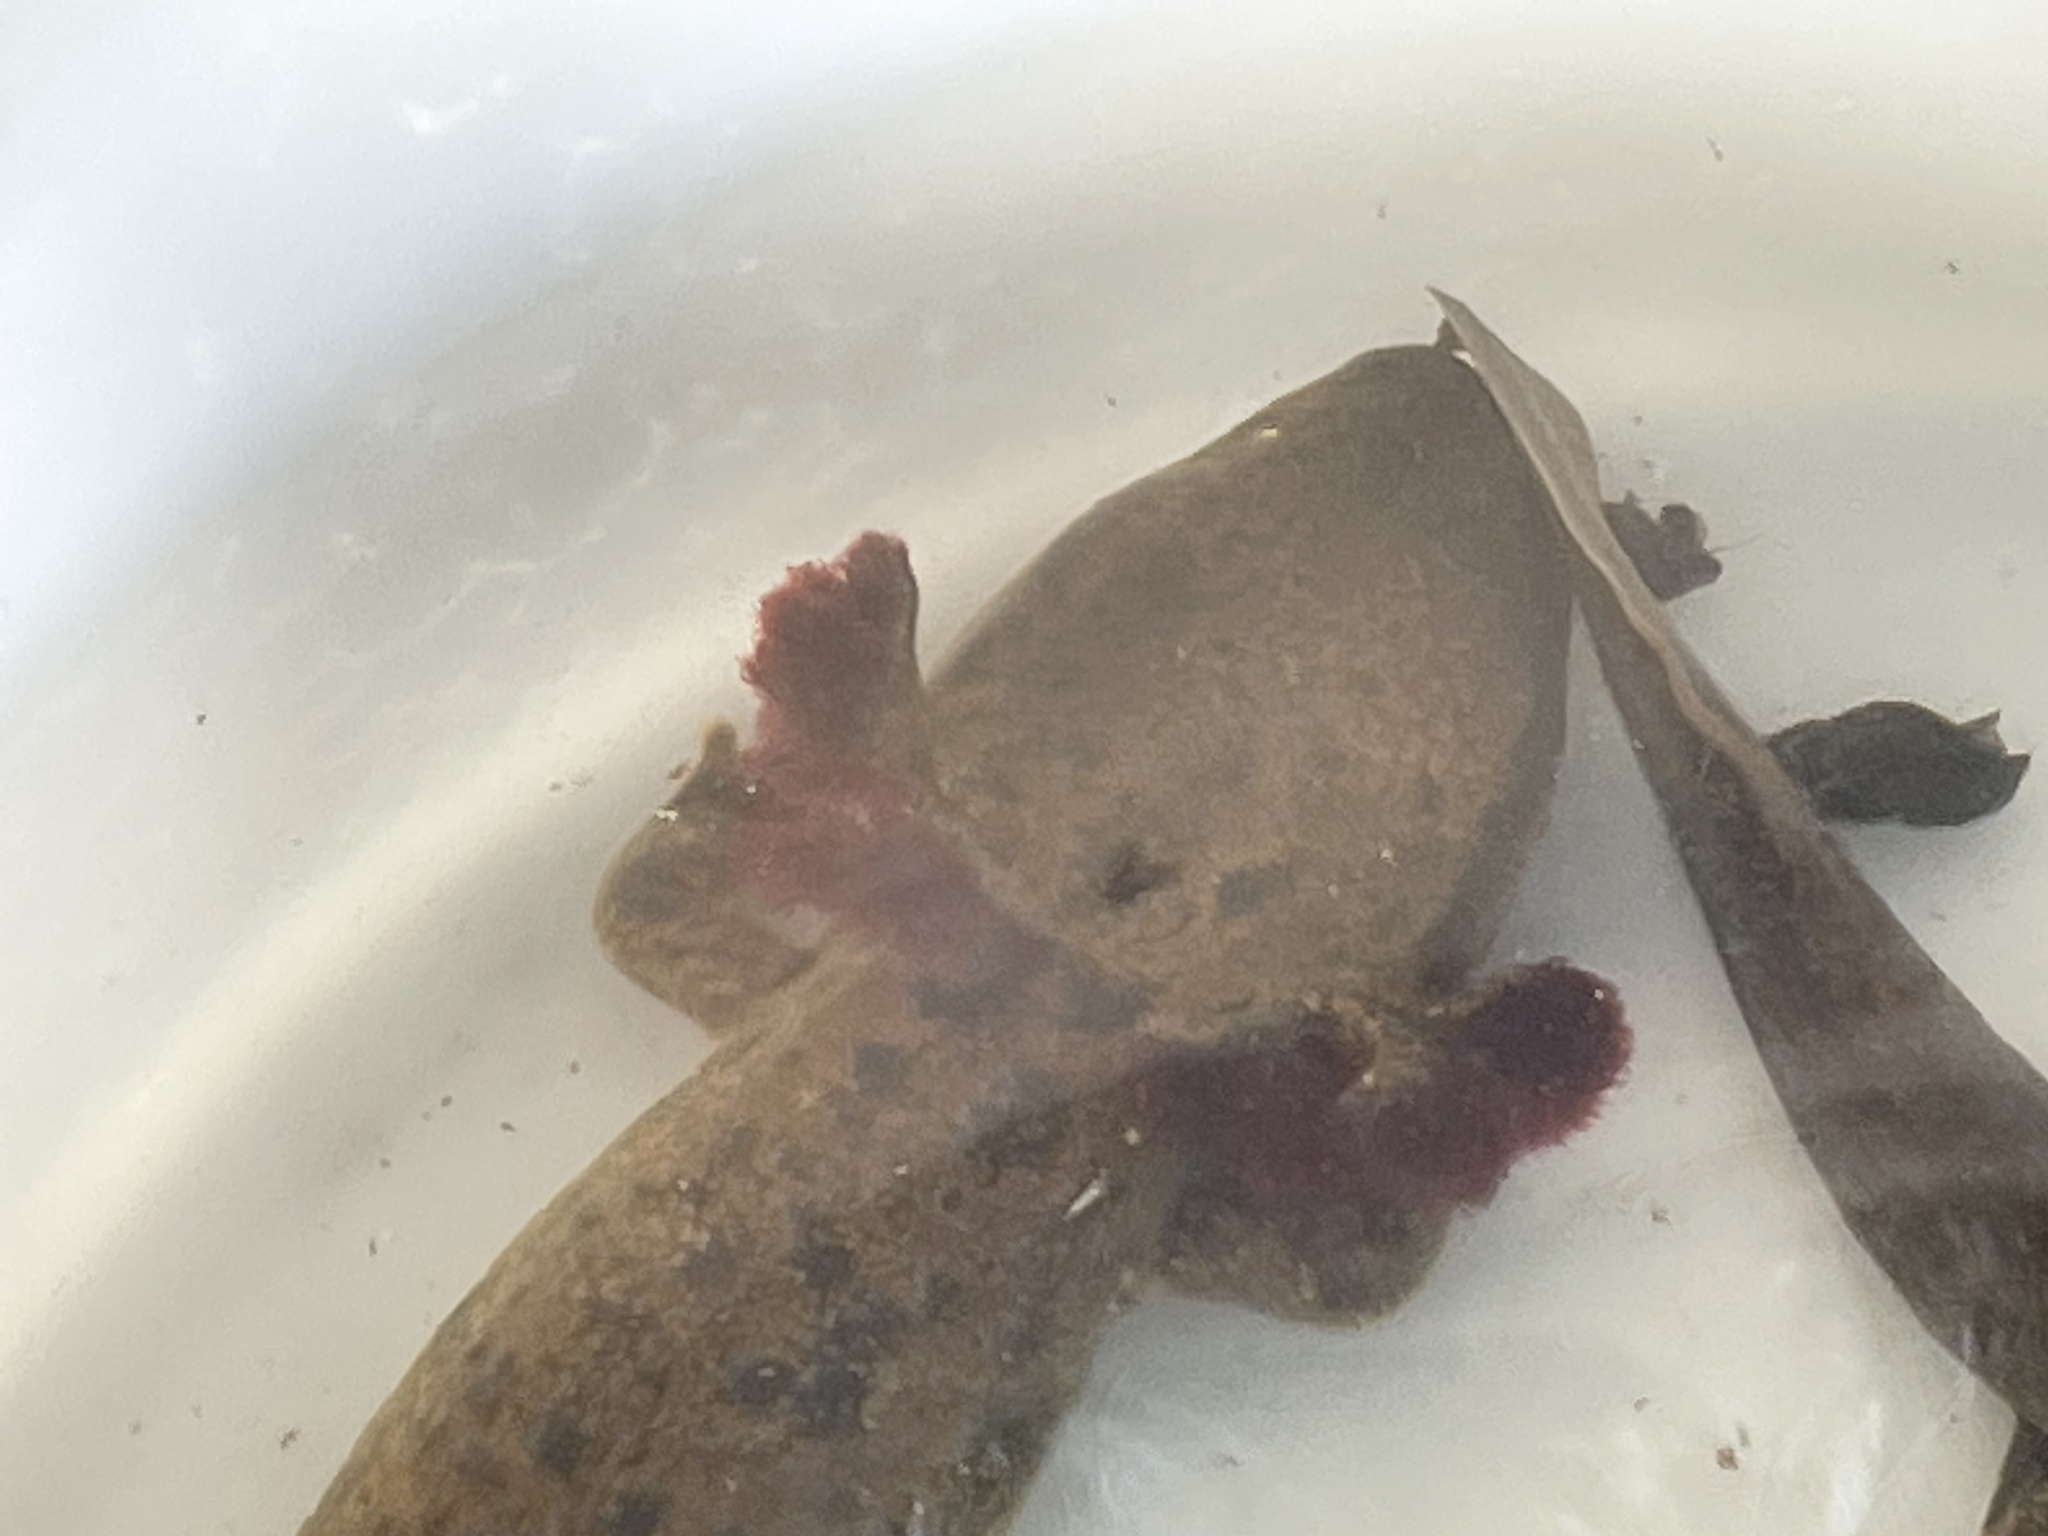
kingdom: Animalia
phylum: Chordata
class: Amphibia
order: Caudata
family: Proteidae
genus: Necturus
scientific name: Necturus maculosus
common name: Mudpuppy
